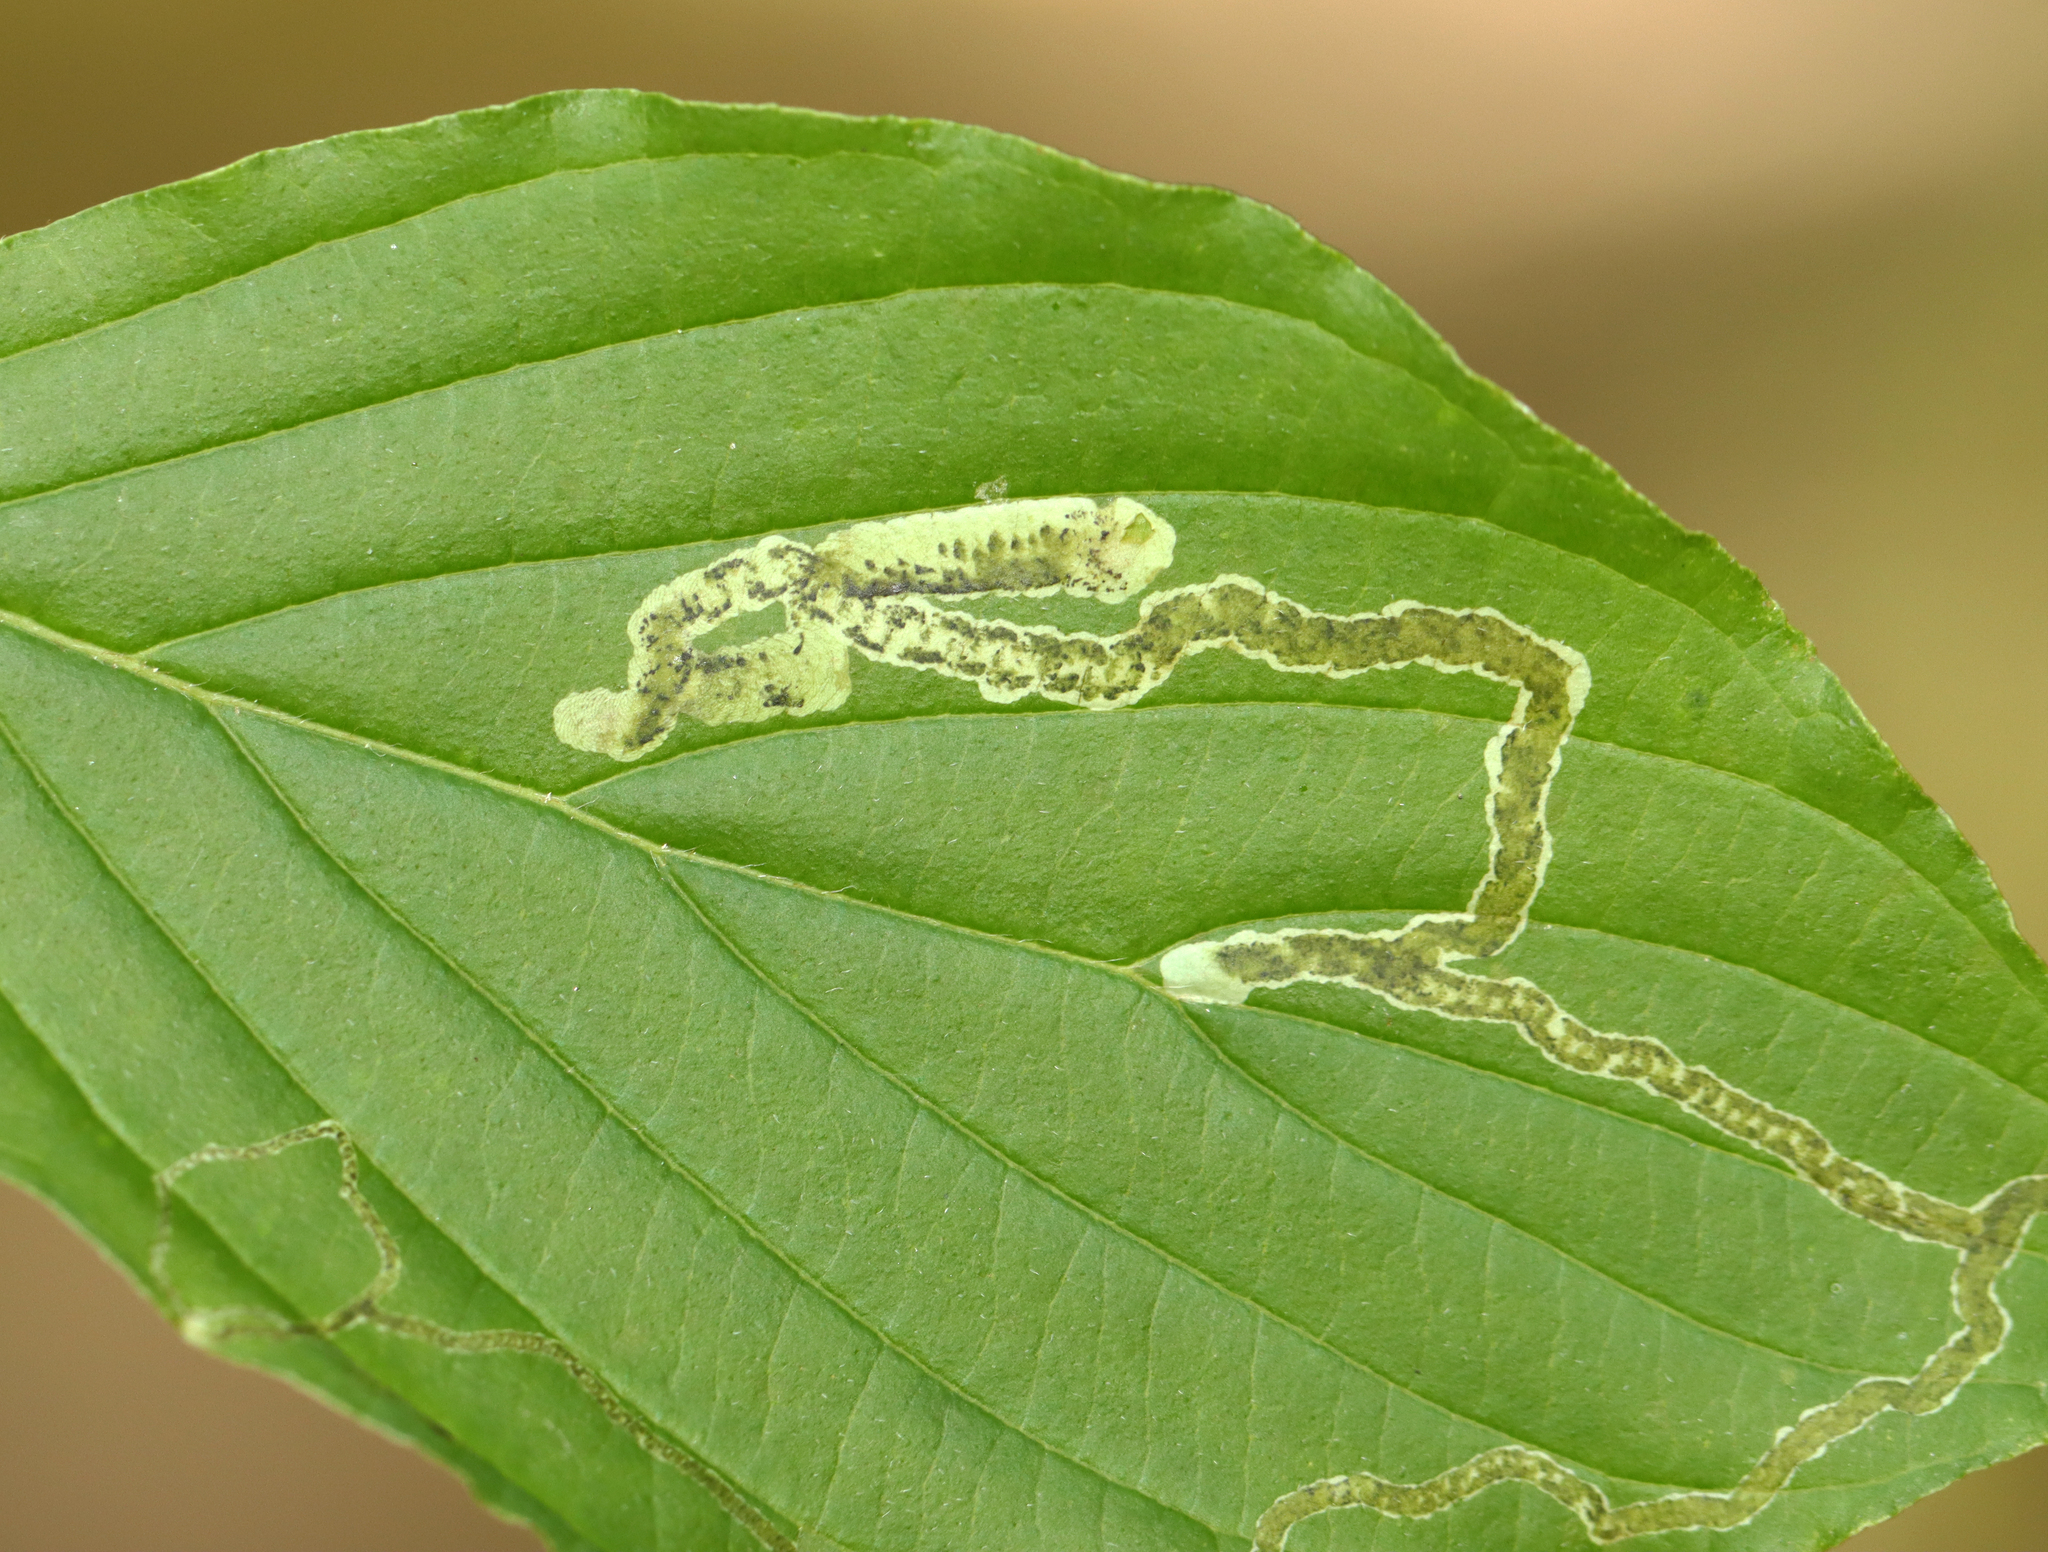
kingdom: Animalia
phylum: Arthropoda
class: Insecta
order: Diptera
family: Agromyzidae
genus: Phytomyza
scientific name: Phytomyza agromyzina
